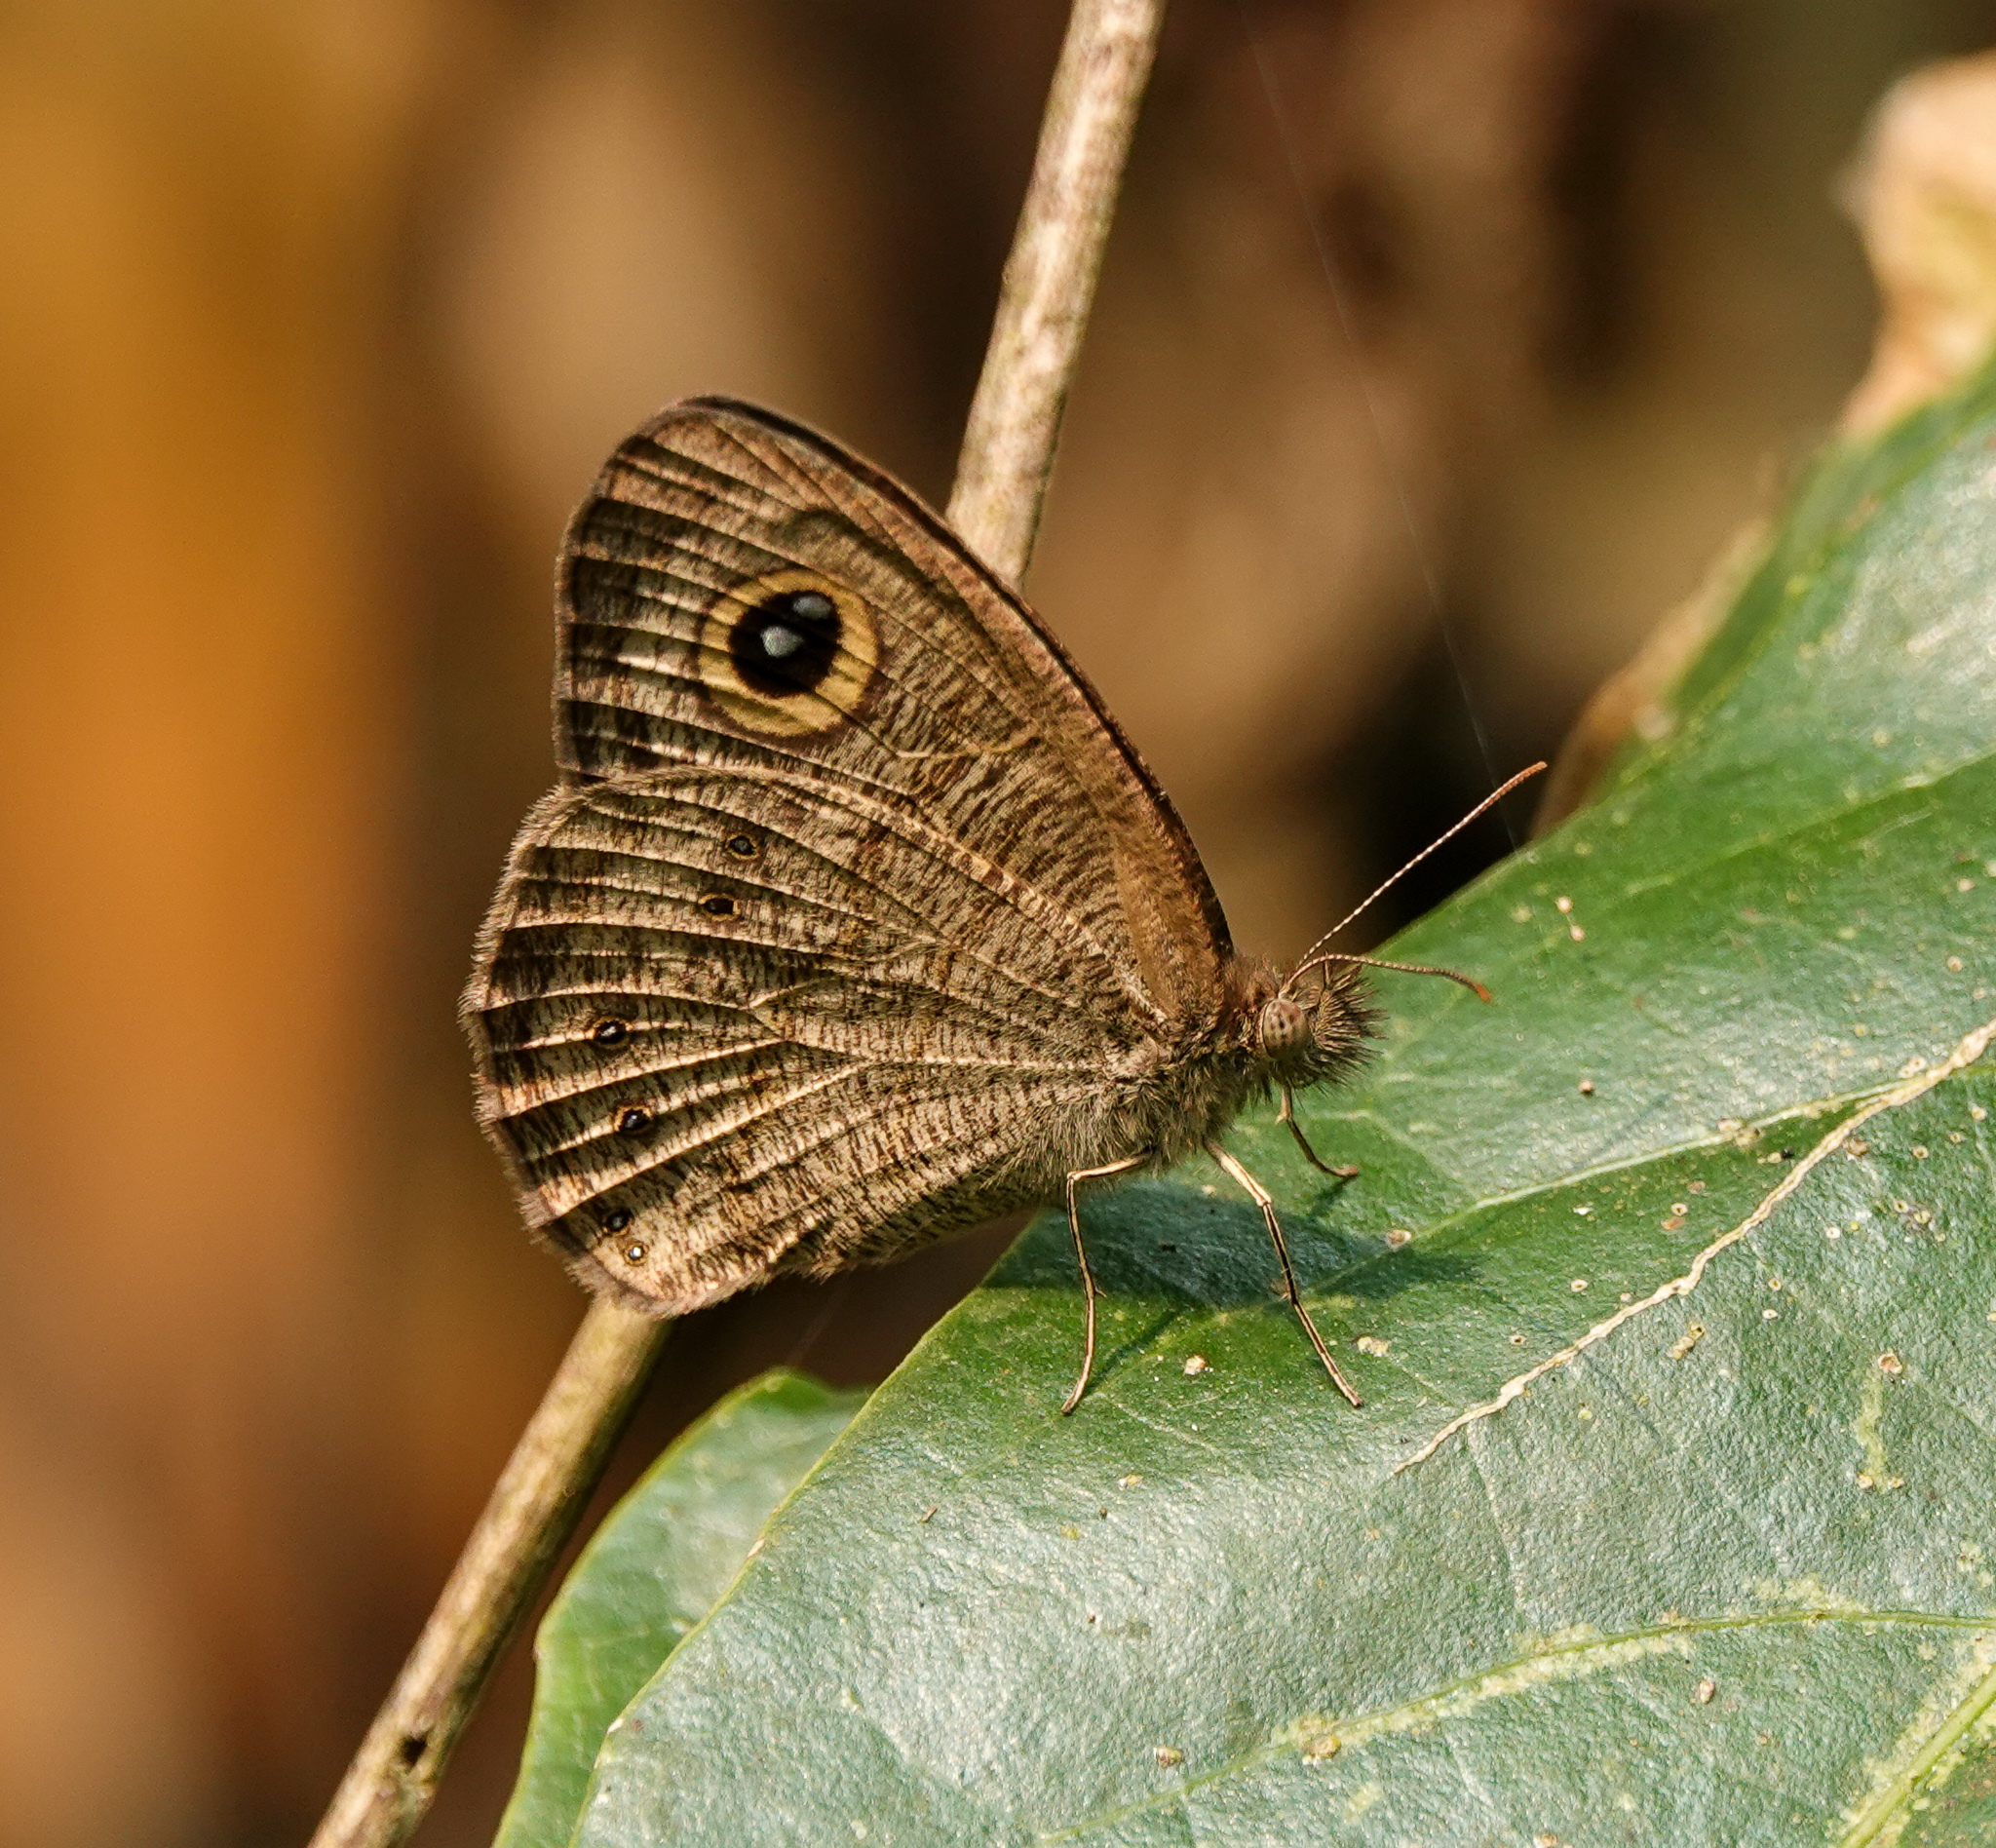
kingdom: Animalia
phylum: Arthropoda
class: Insecta
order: Lepidoptera
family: Nymphalidae
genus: Ypthima
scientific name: Ypthima baldus
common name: Common five-ring
